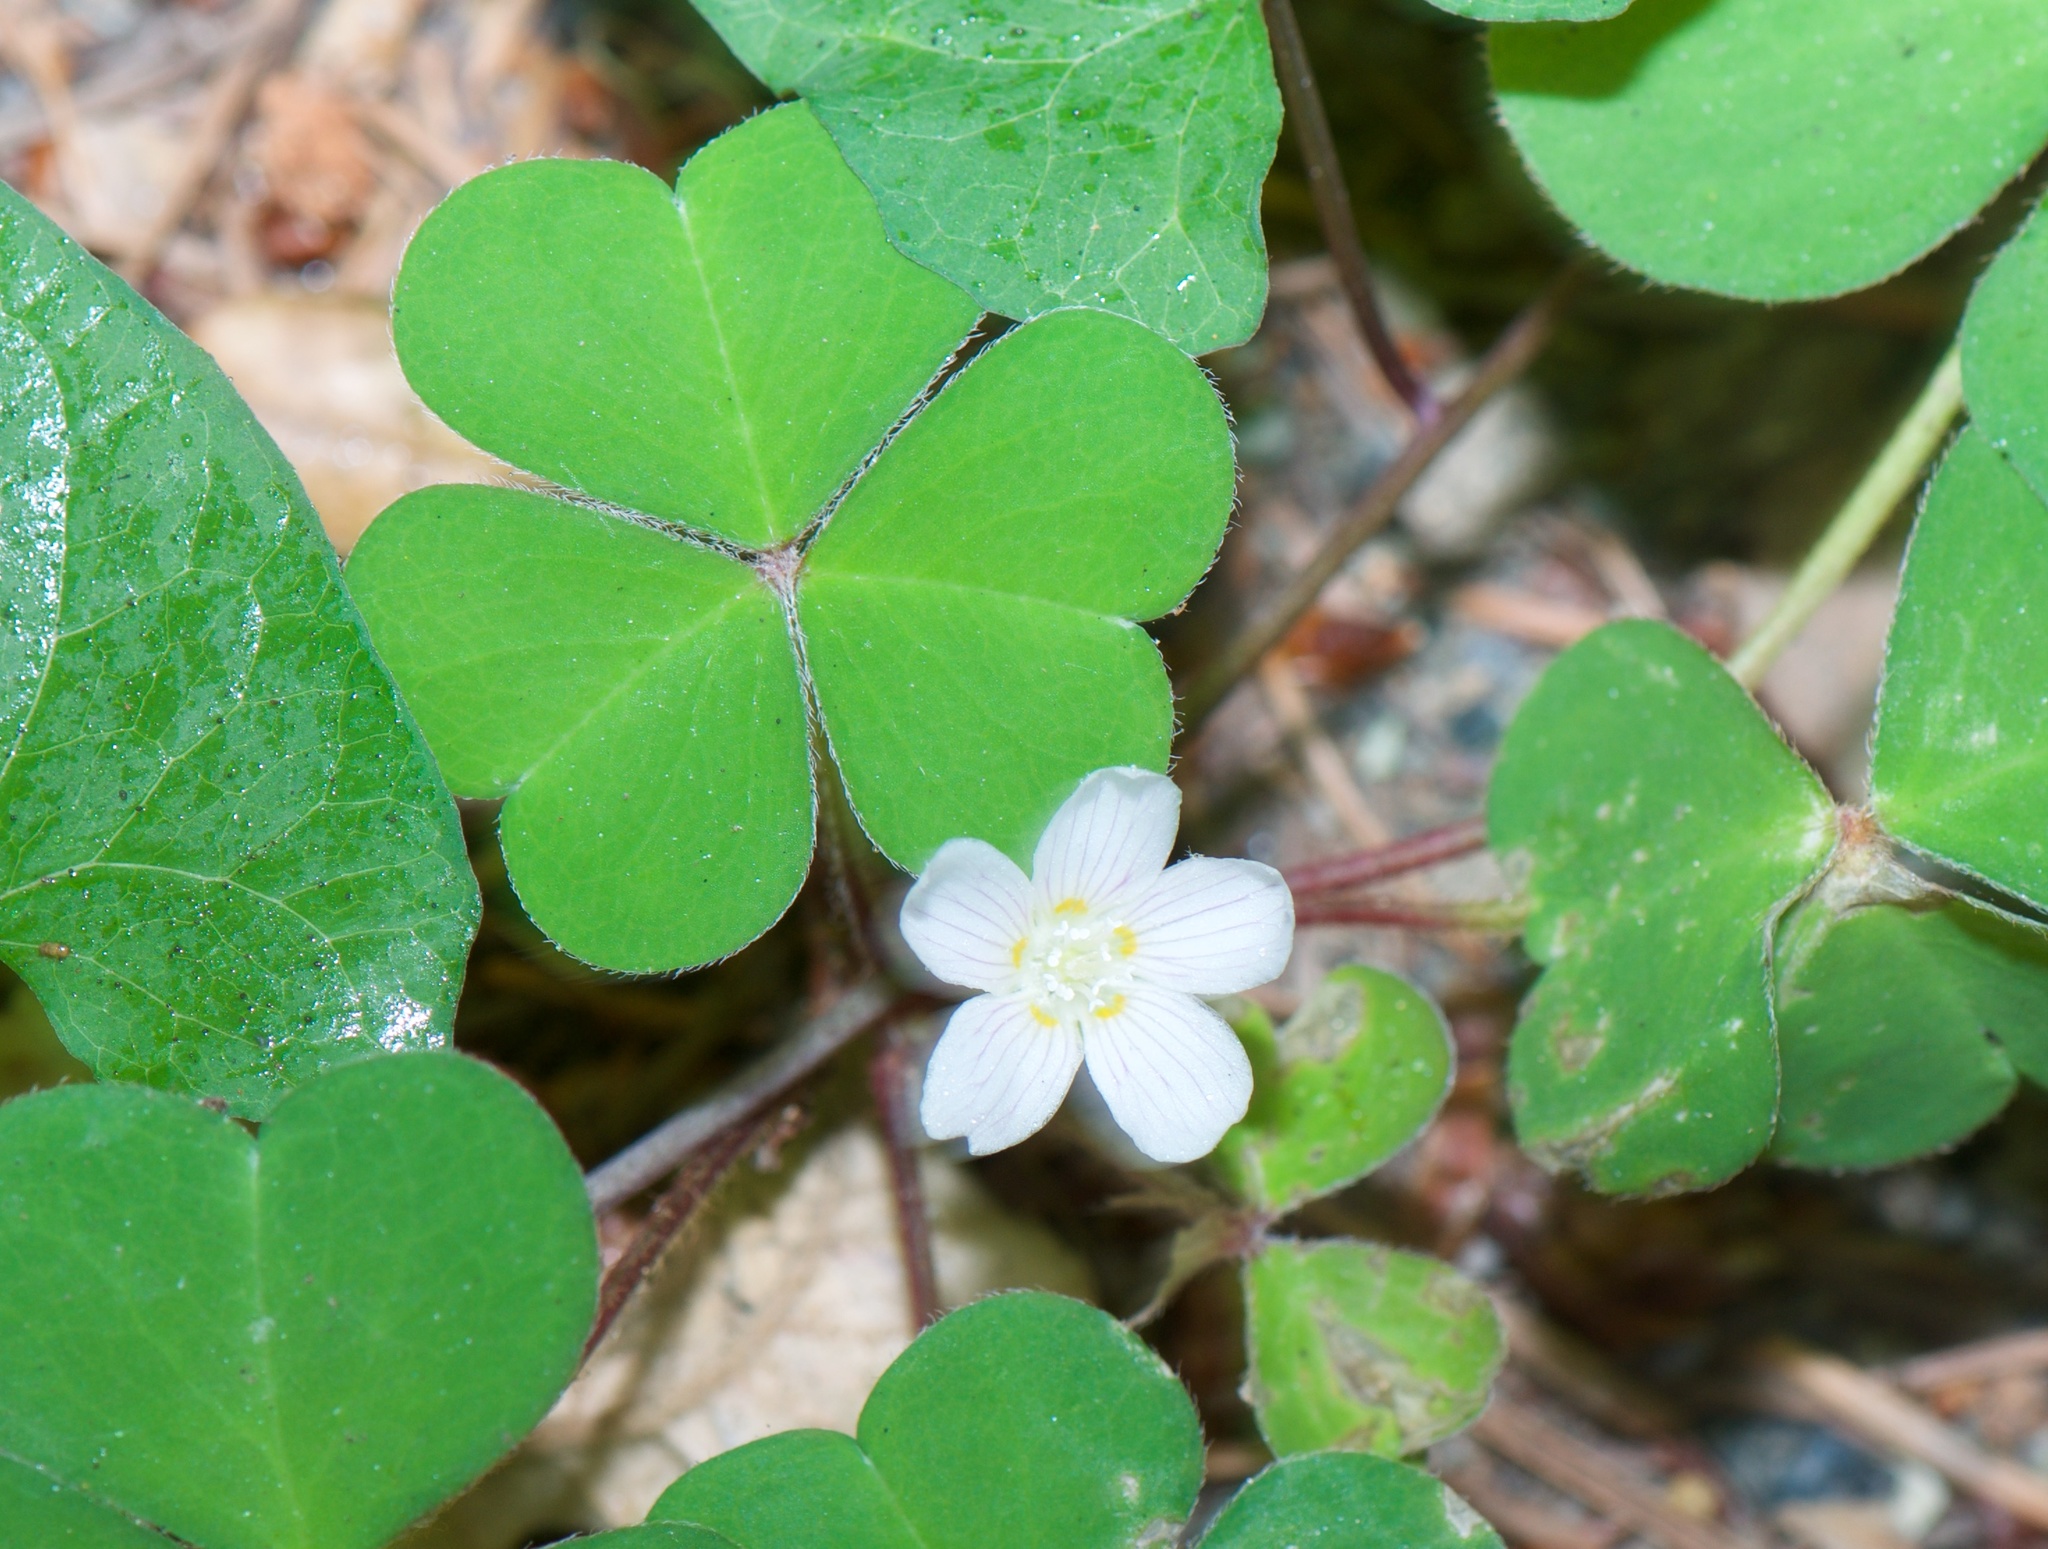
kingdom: Plantae
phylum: Tracheophyta
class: Magnoliopsida
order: Oxalidales
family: Oxalidaceae
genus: Oxalis
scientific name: Oxalis oregana
